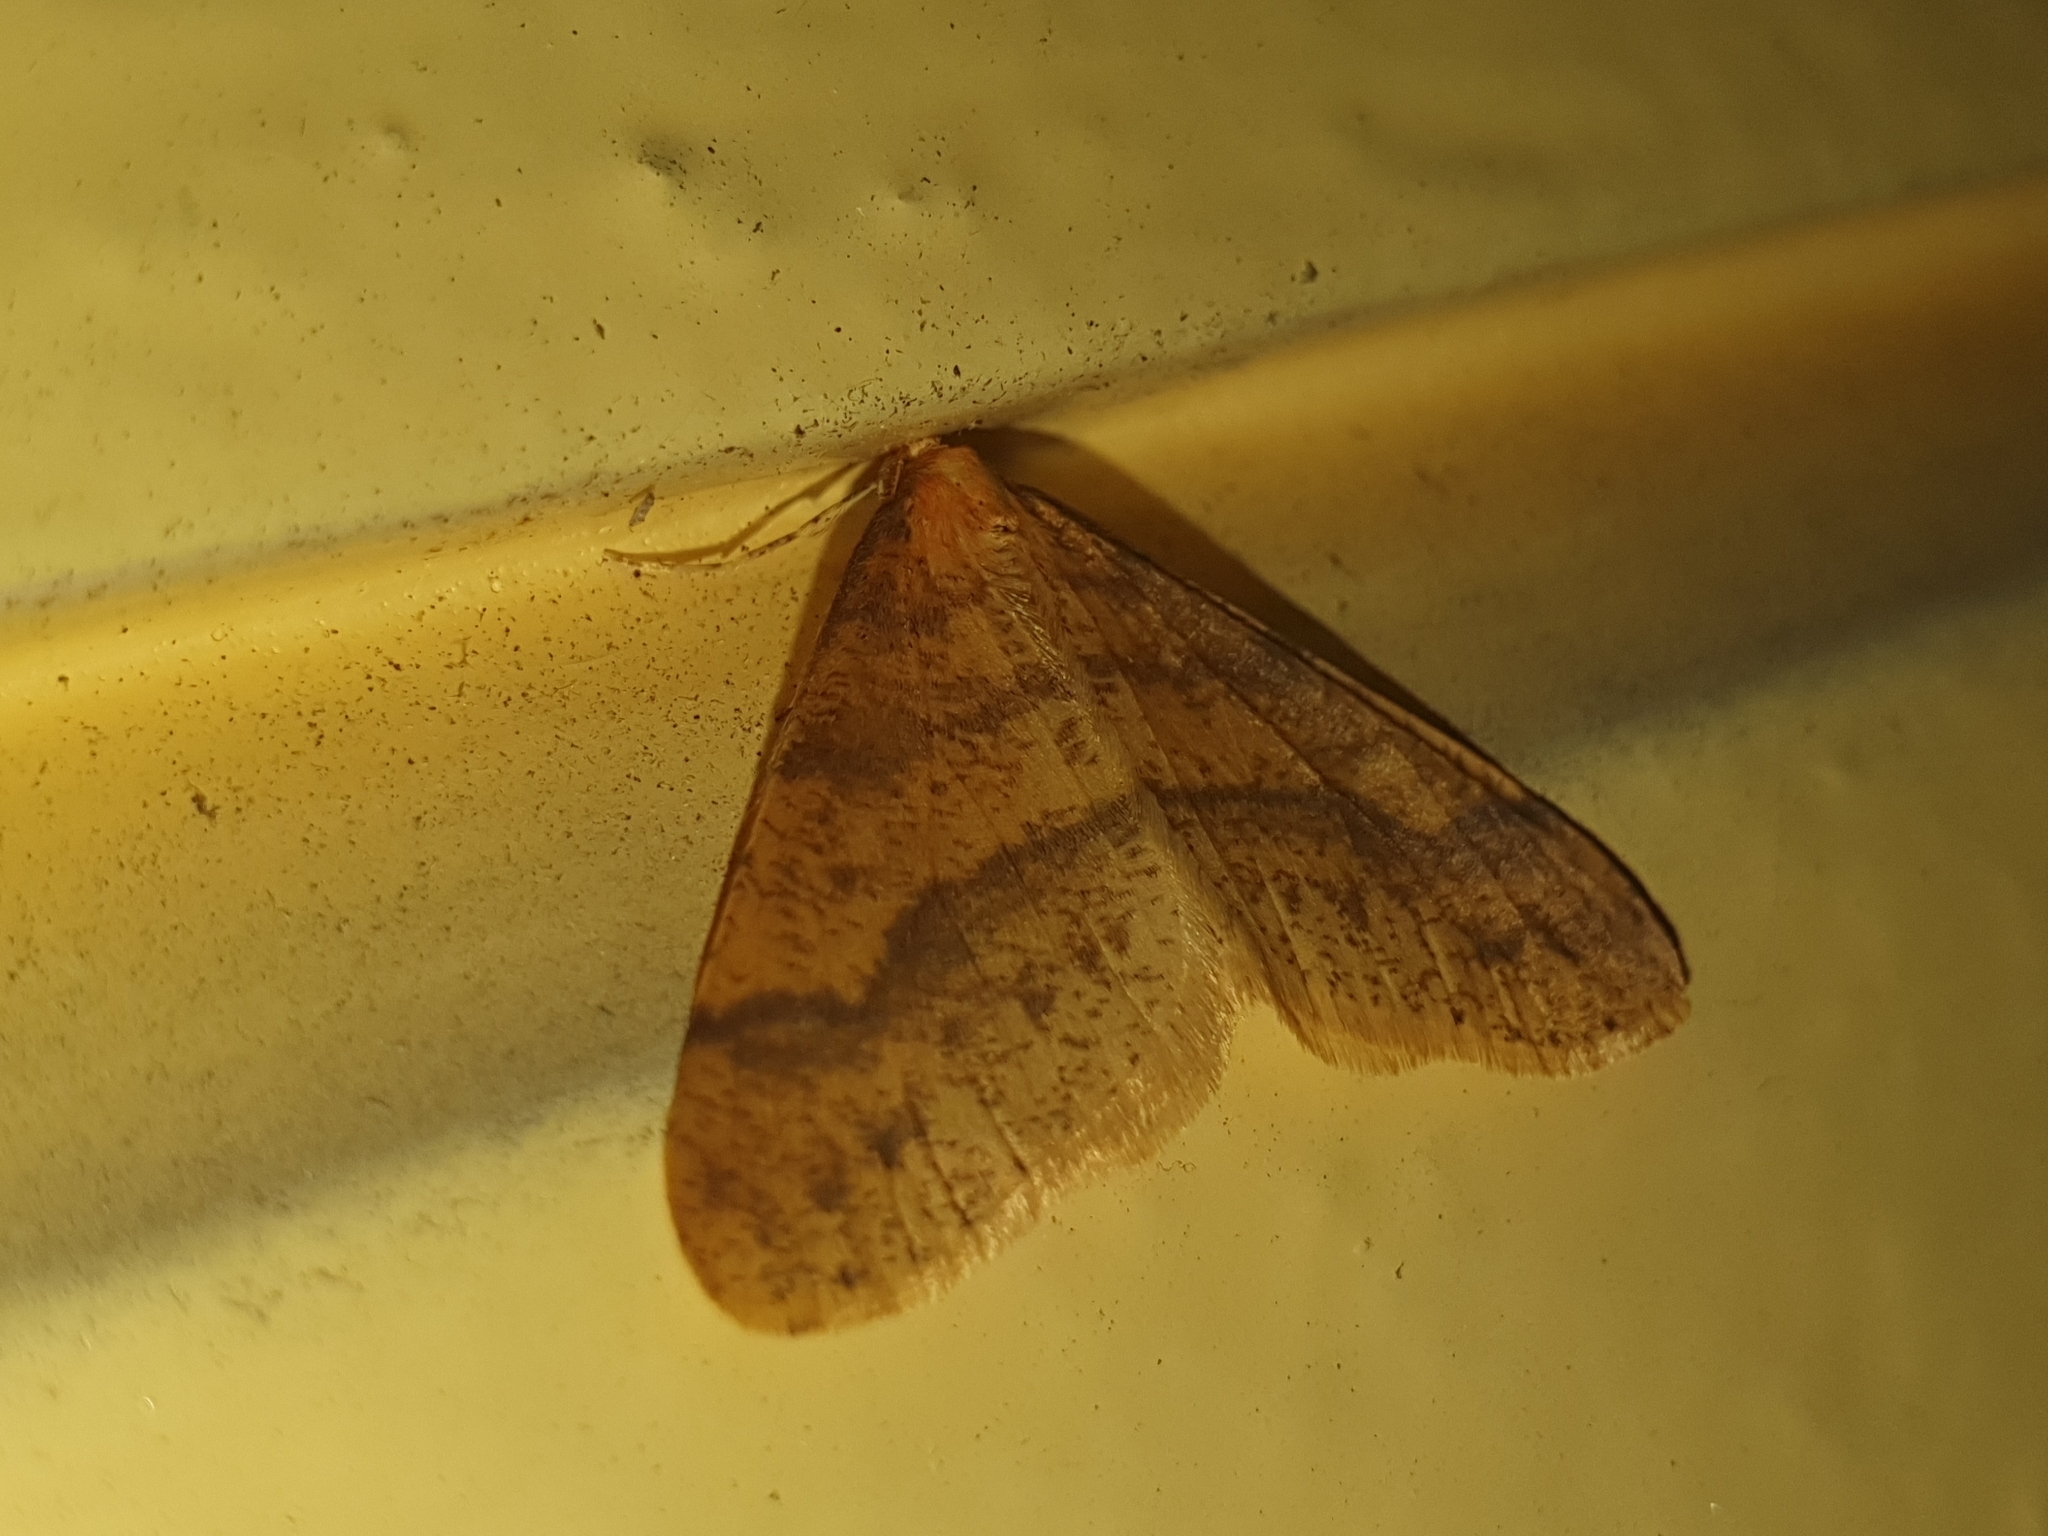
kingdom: Animalia
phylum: Arthropoda
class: Insecta
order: Lepidoptera
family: Geometridae
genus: Agriopis
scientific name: Agriopis aurantiaria
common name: Scarce umber
